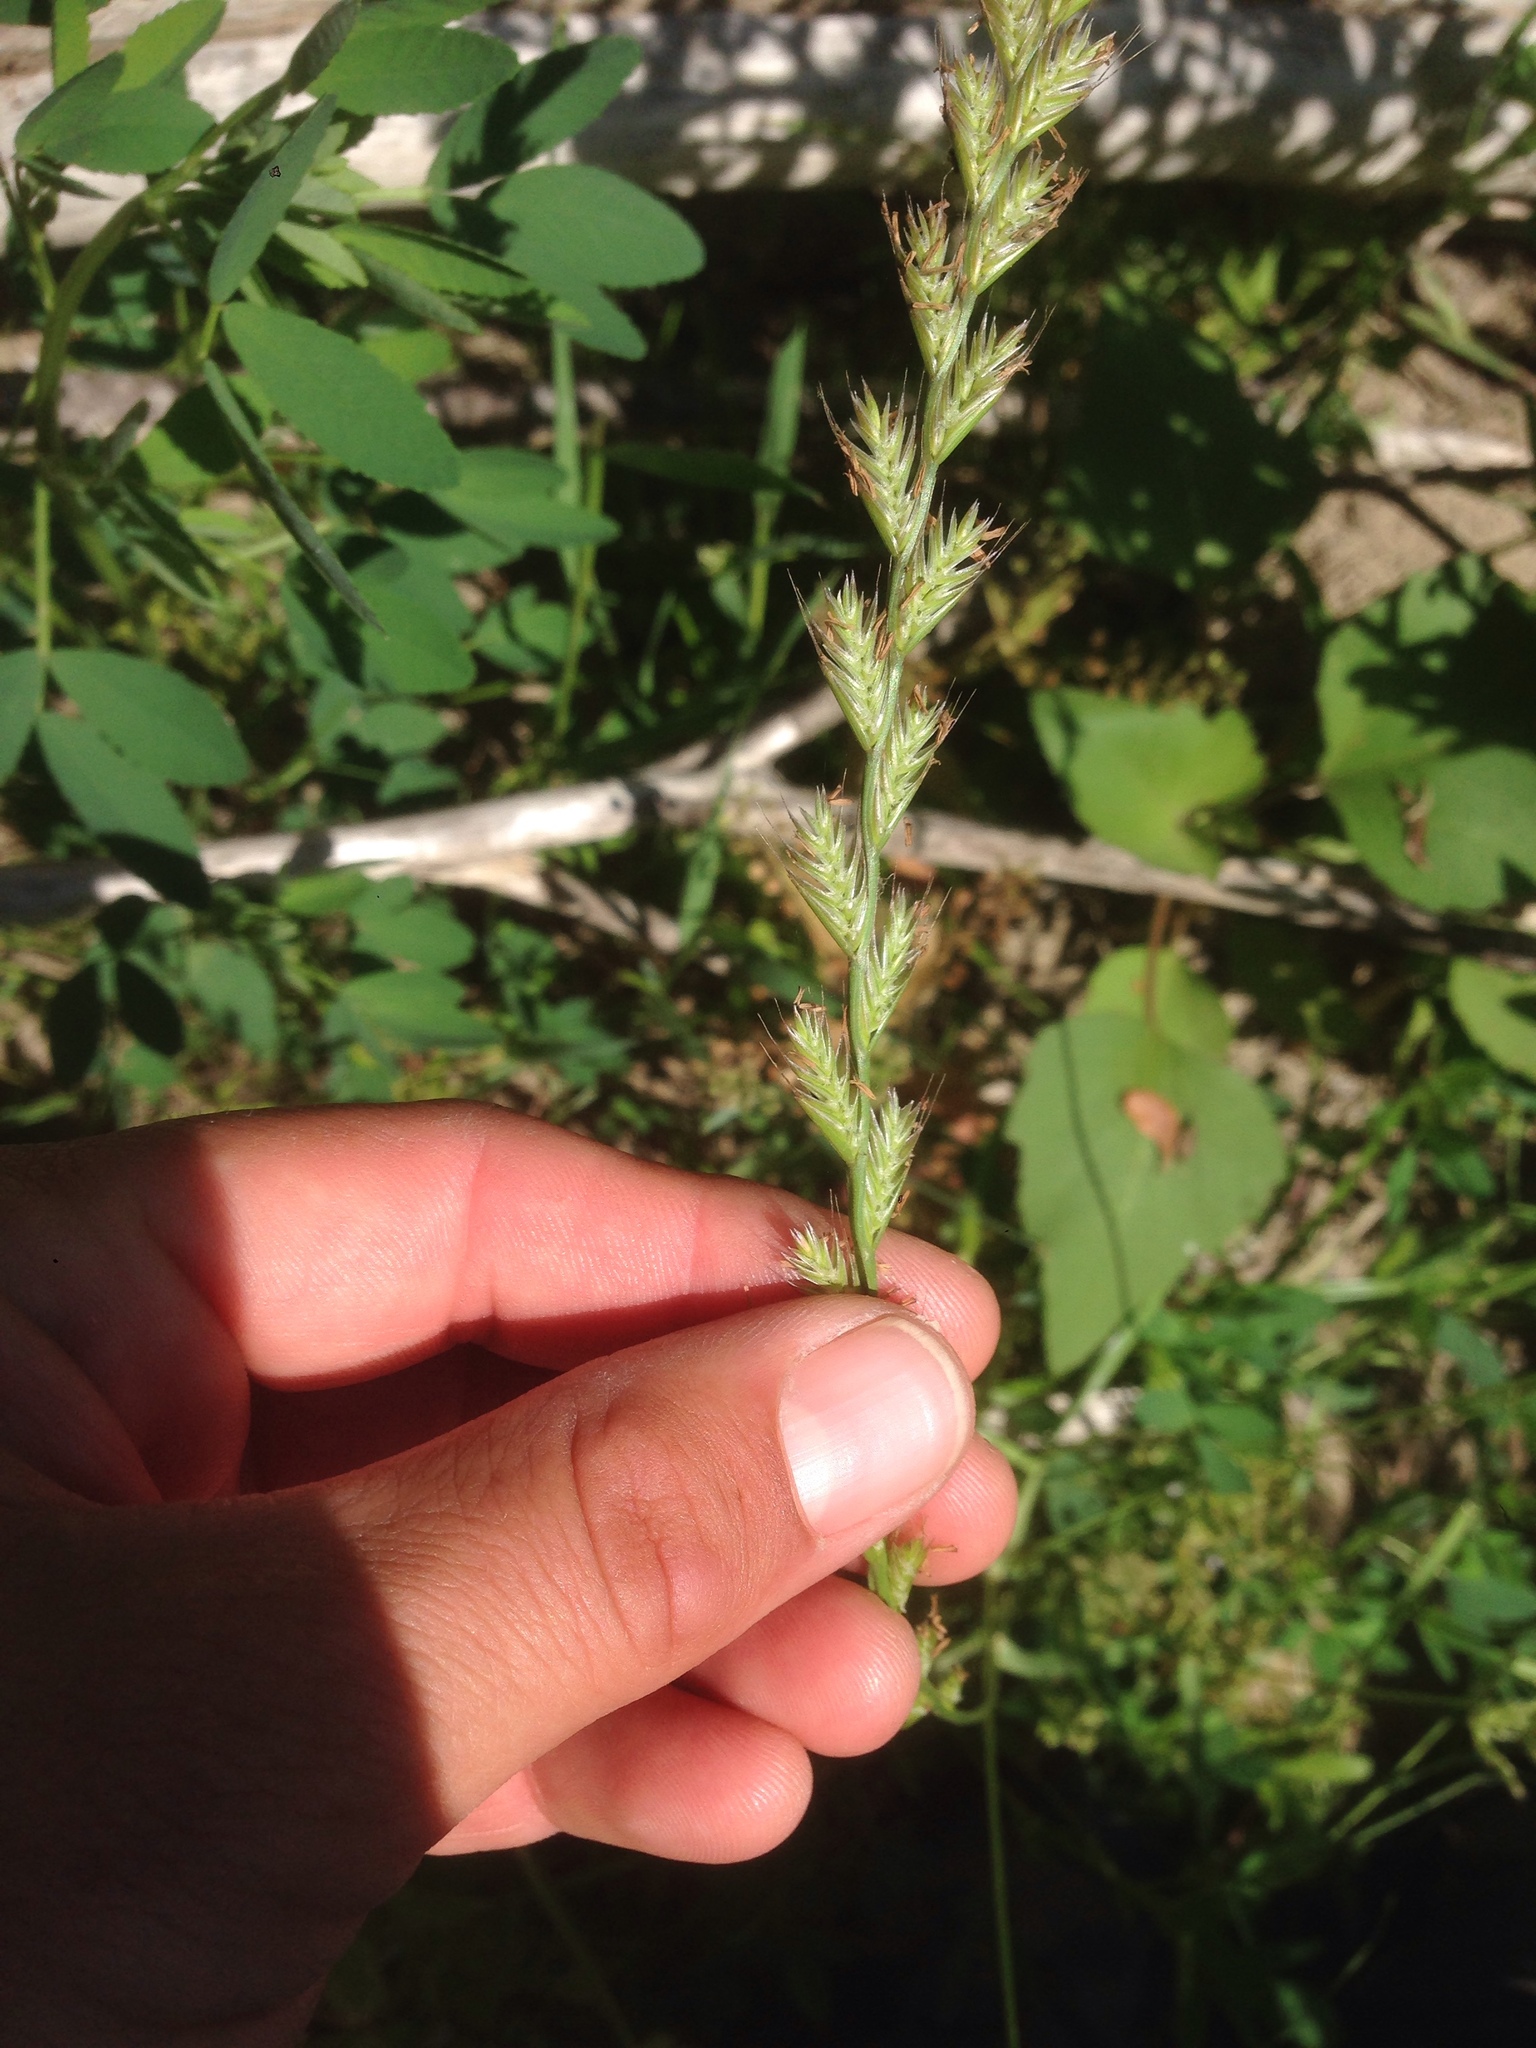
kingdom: Plantae
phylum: Tracheophyta
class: Liliopsida
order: Poales
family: Poaceae
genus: Lolium
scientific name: Lolium perenne
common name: Perennial ryegrass
